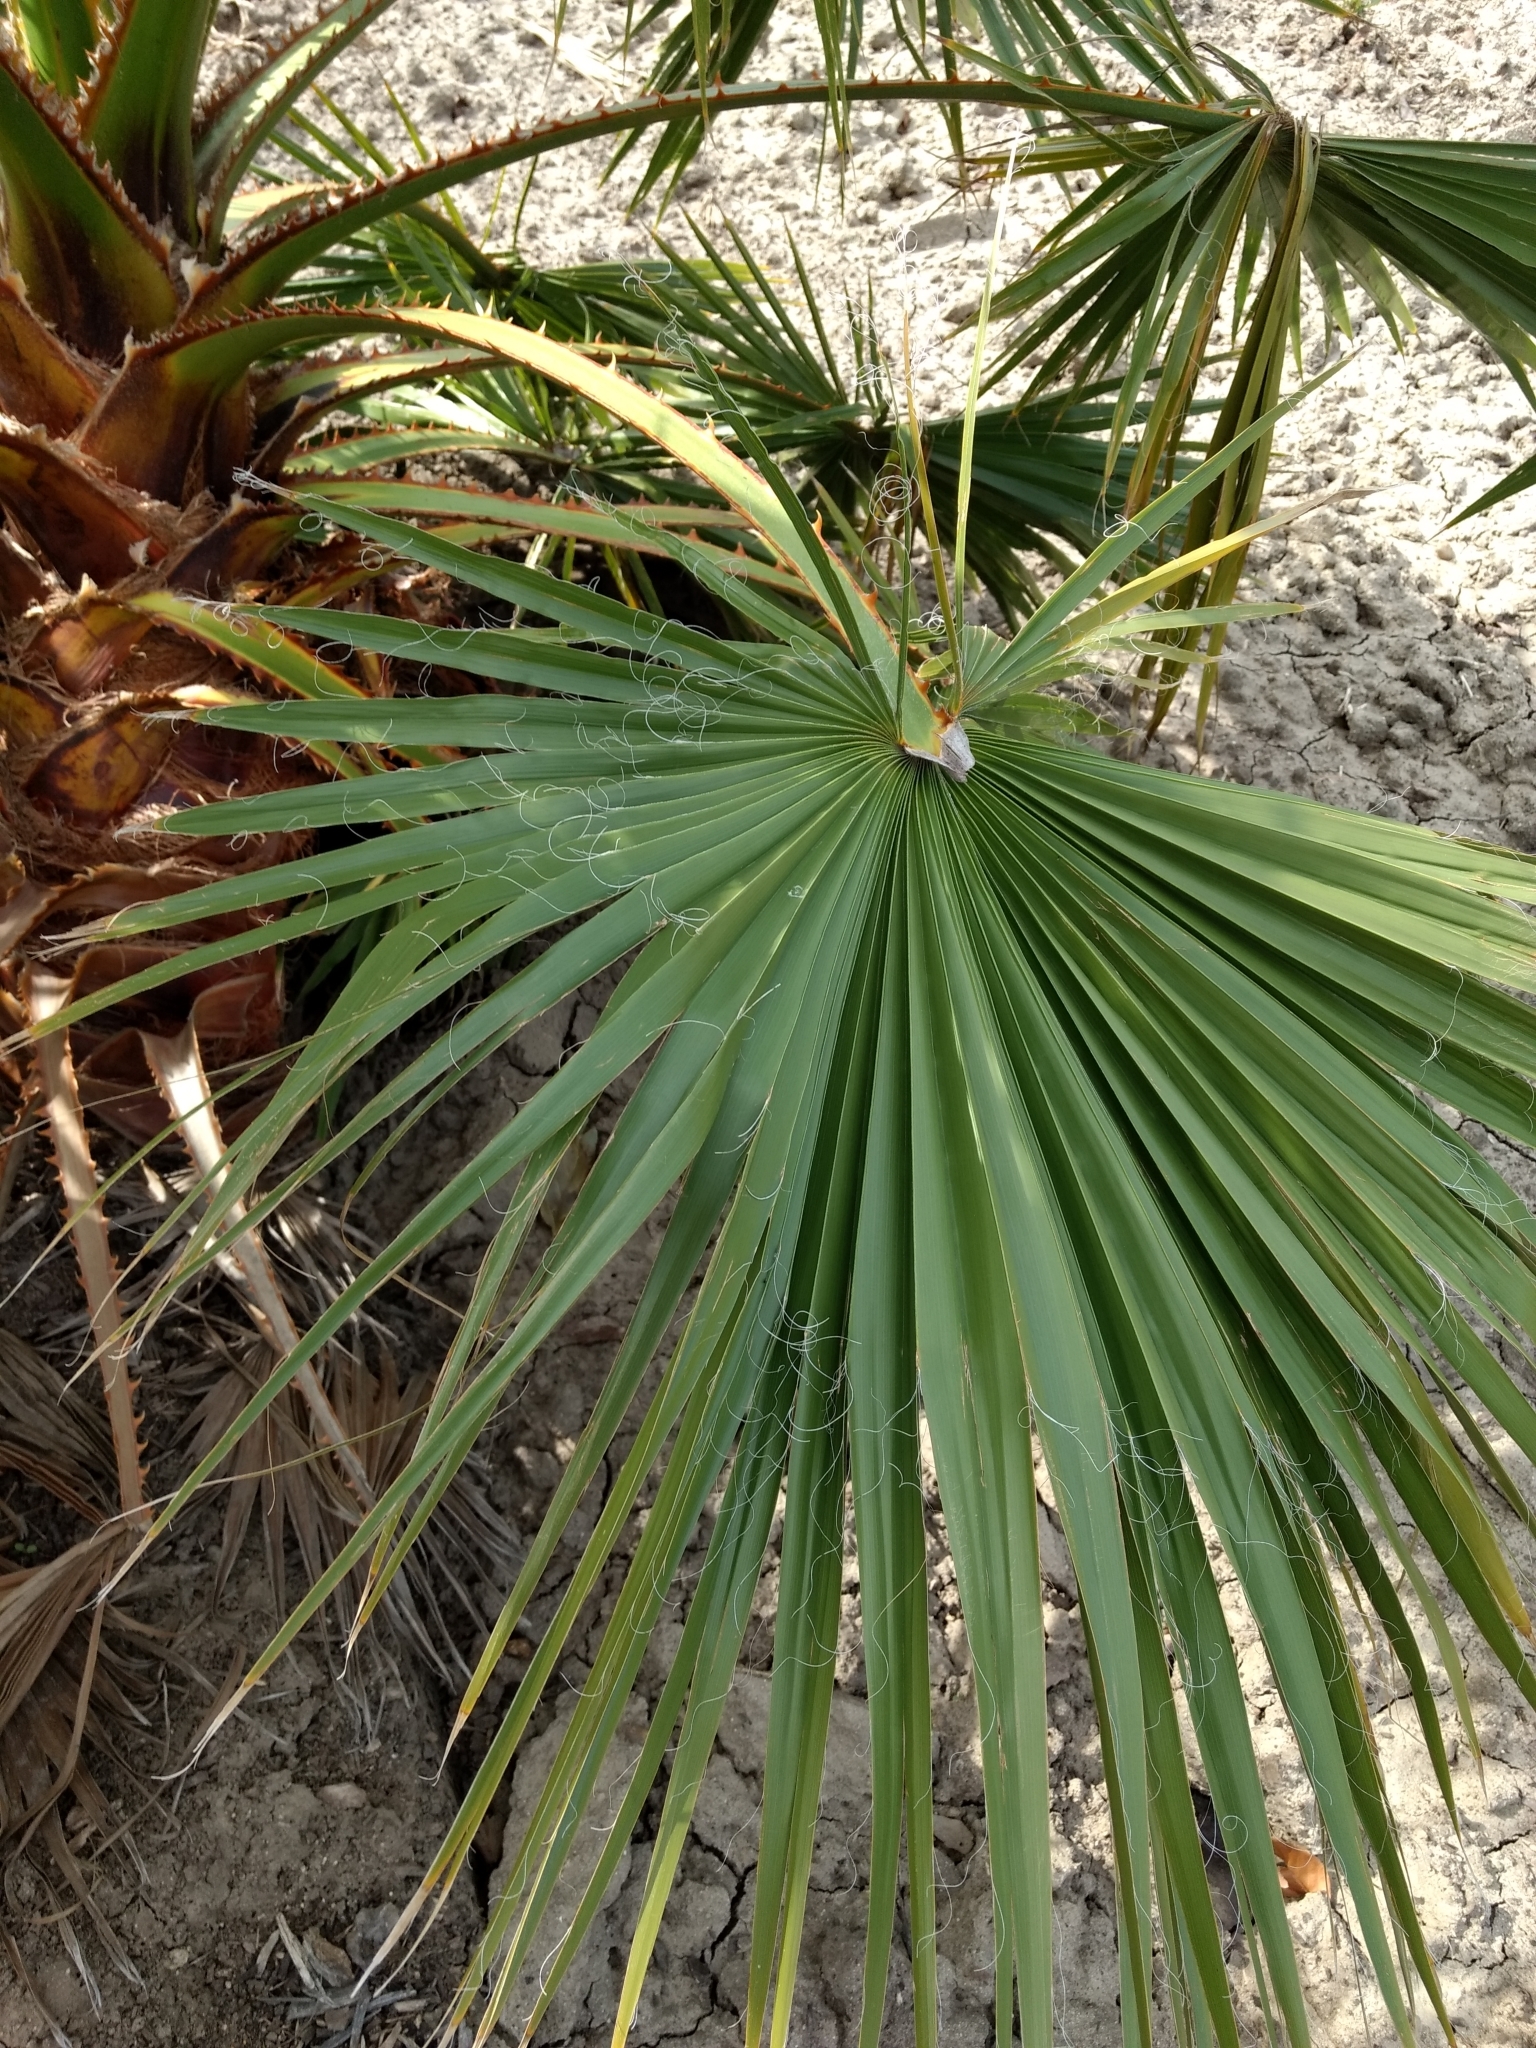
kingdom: Plantae
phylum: Tracheophyta
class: Liliopsida
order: Arecales
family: Arecaceae
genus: Washingtonia
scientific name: Washingtonia robusta
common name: Mexican fan palm
